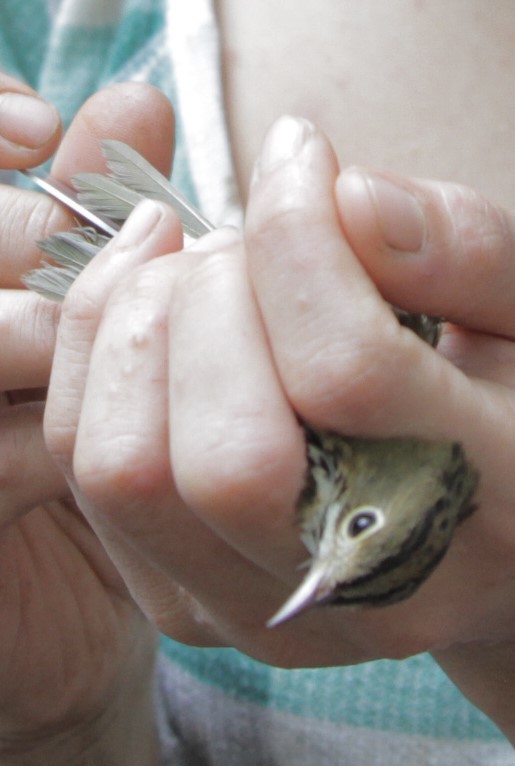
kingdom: Animalia
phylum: Chordata
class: Aves
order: Passeriformes
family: Parulidae
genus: Seiurus
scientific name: Seiurus aurocapilla
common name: Ovenbird
